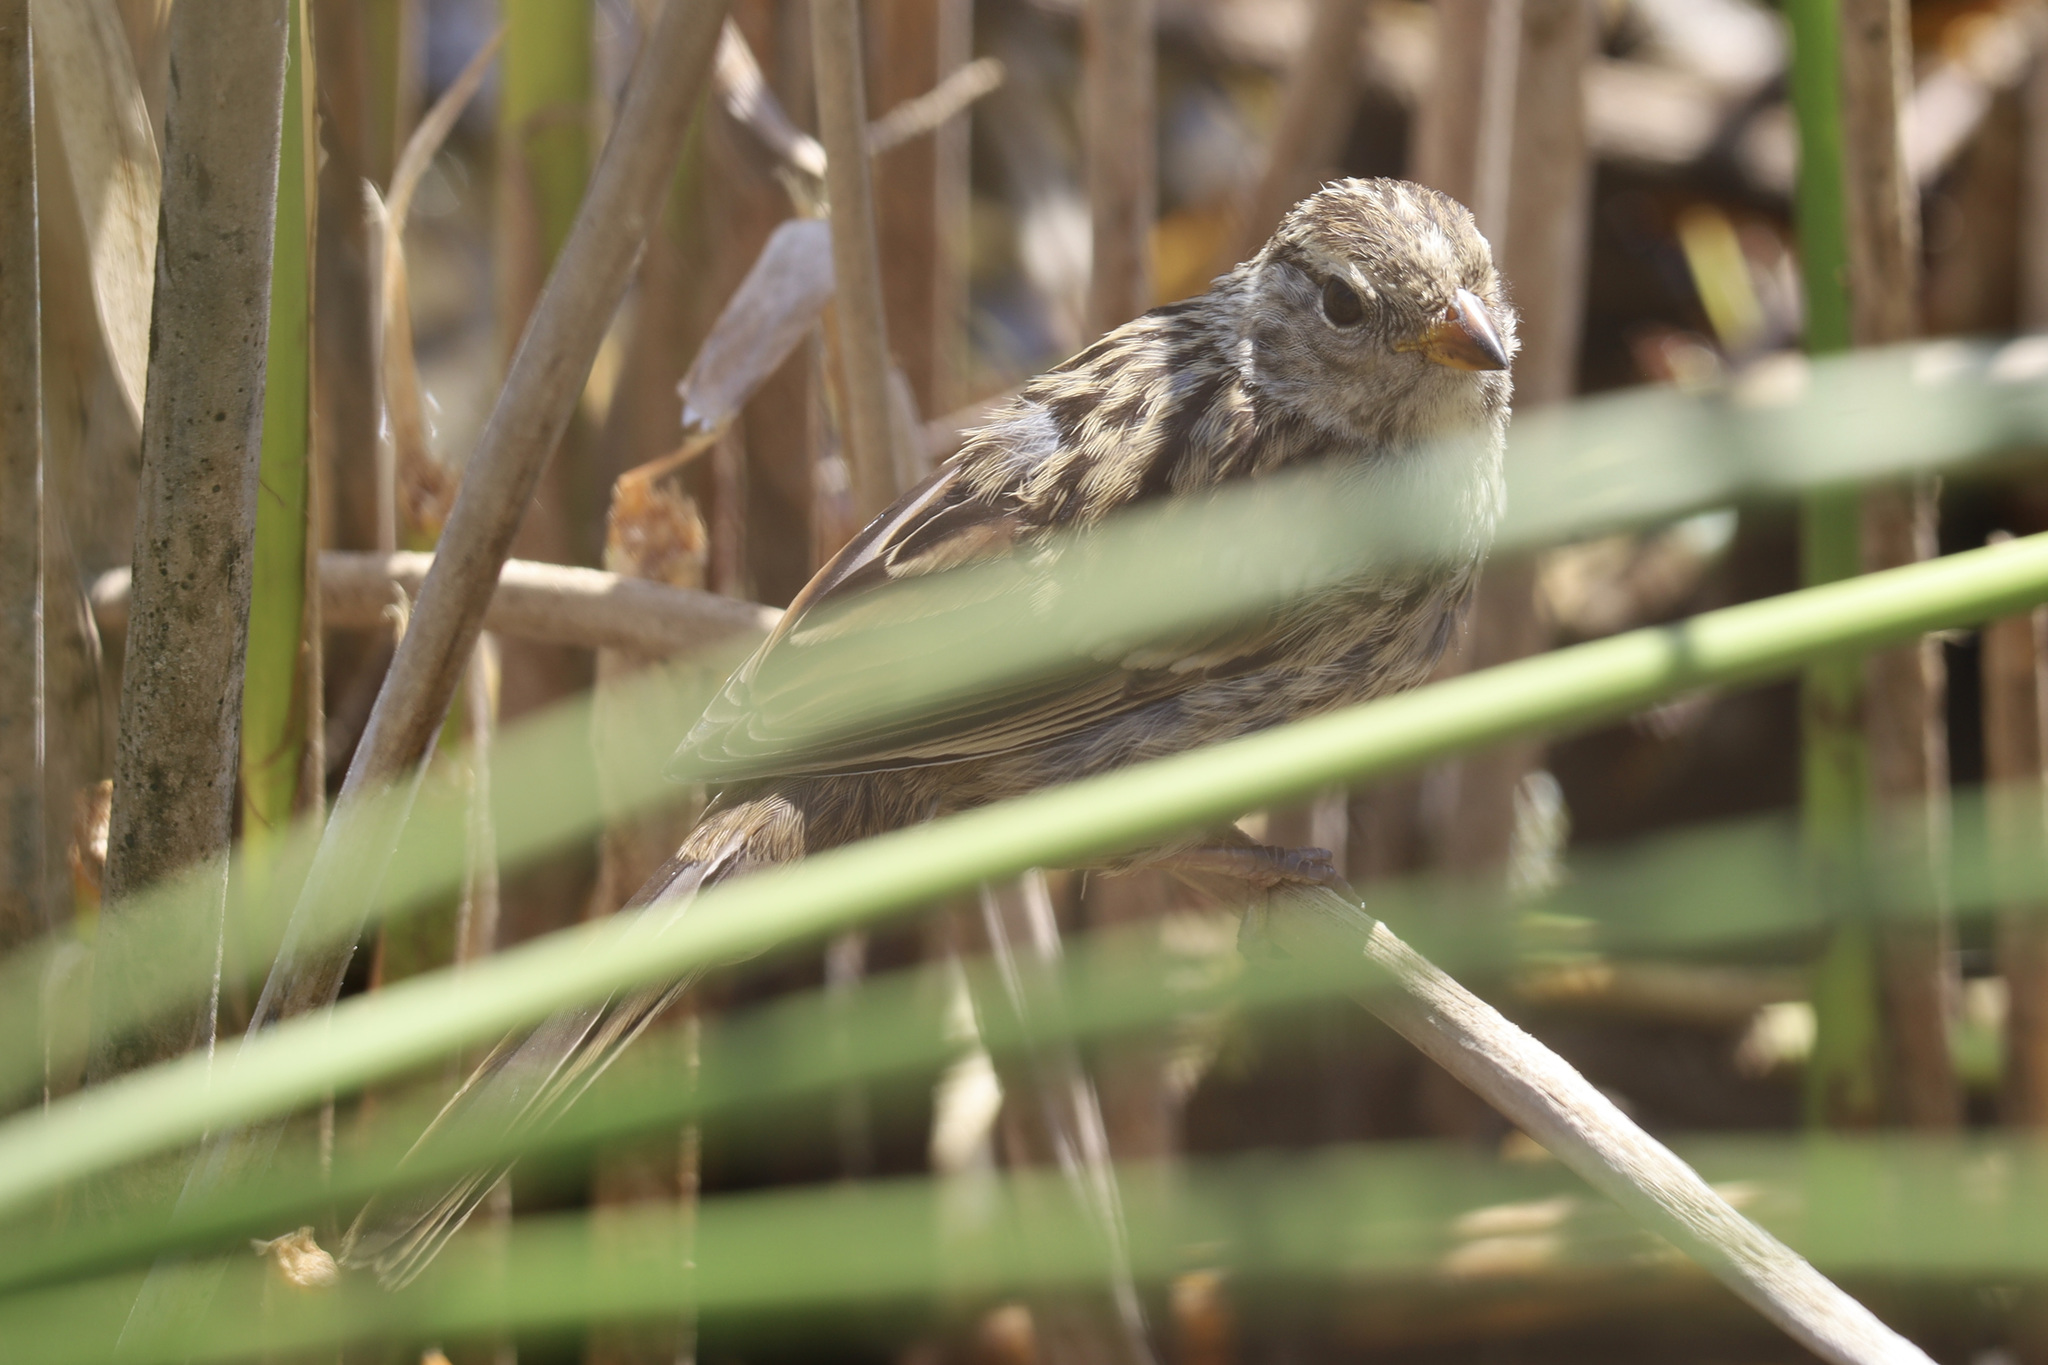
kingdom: Animalia
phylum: Chordata
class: Aves
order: Passeriformes
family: Passerellidae
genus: Zonotrichia
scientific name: Zonotrichia leucophrys
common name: White-crowned sparrow
